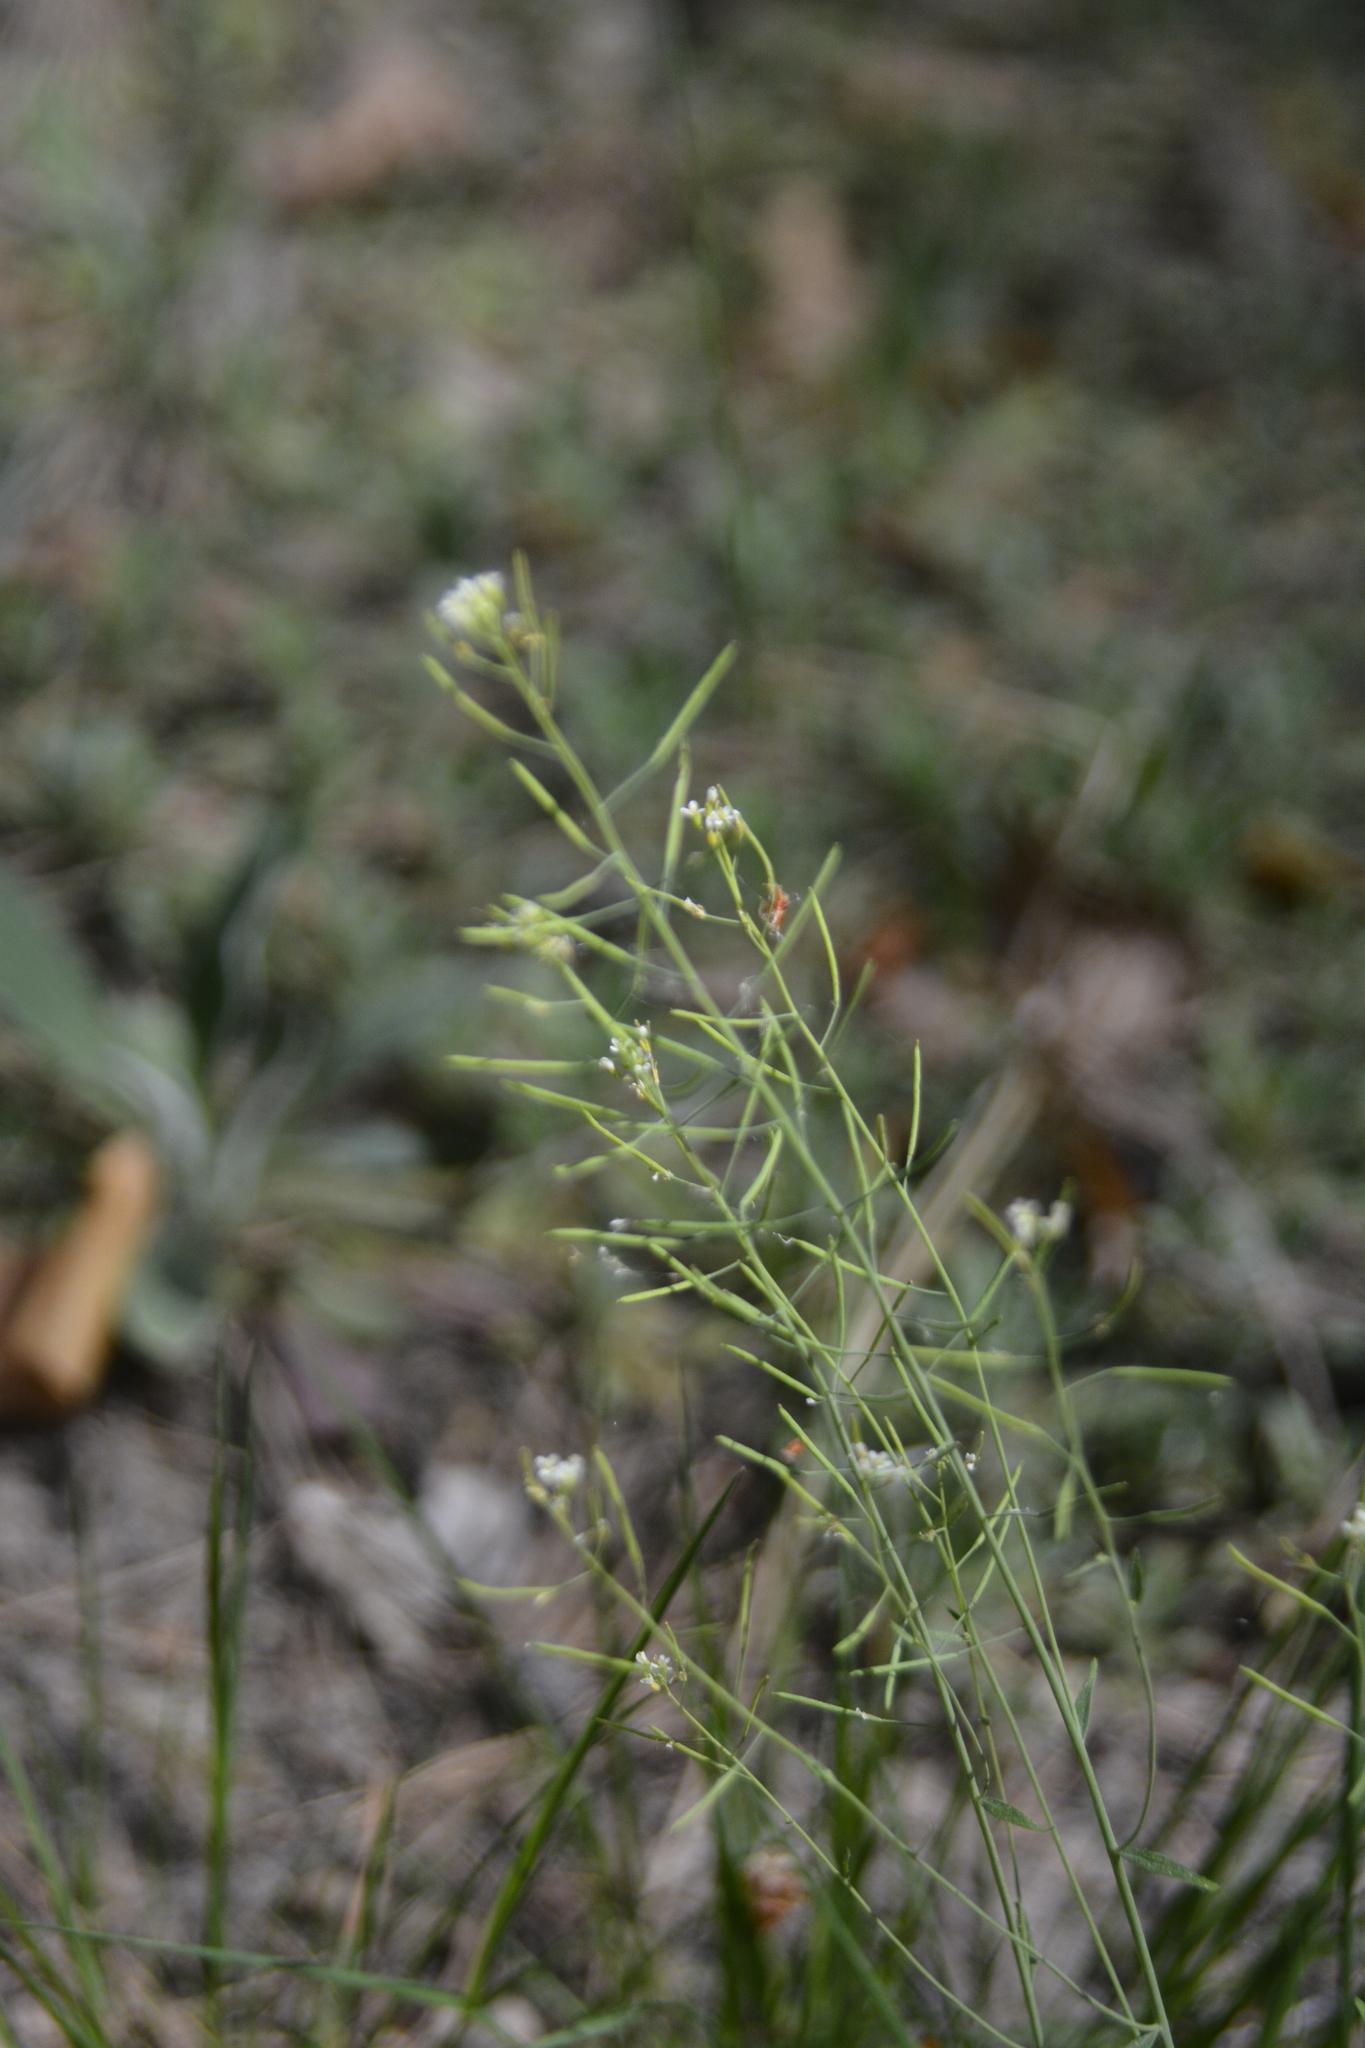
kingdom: Plantae
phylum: Tracheophyta
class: Magnoliopsida
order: Brassicales
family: Brassicaceae
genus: Arabidopsis
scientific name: Arabidopsis thaliana
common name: Thale cress
